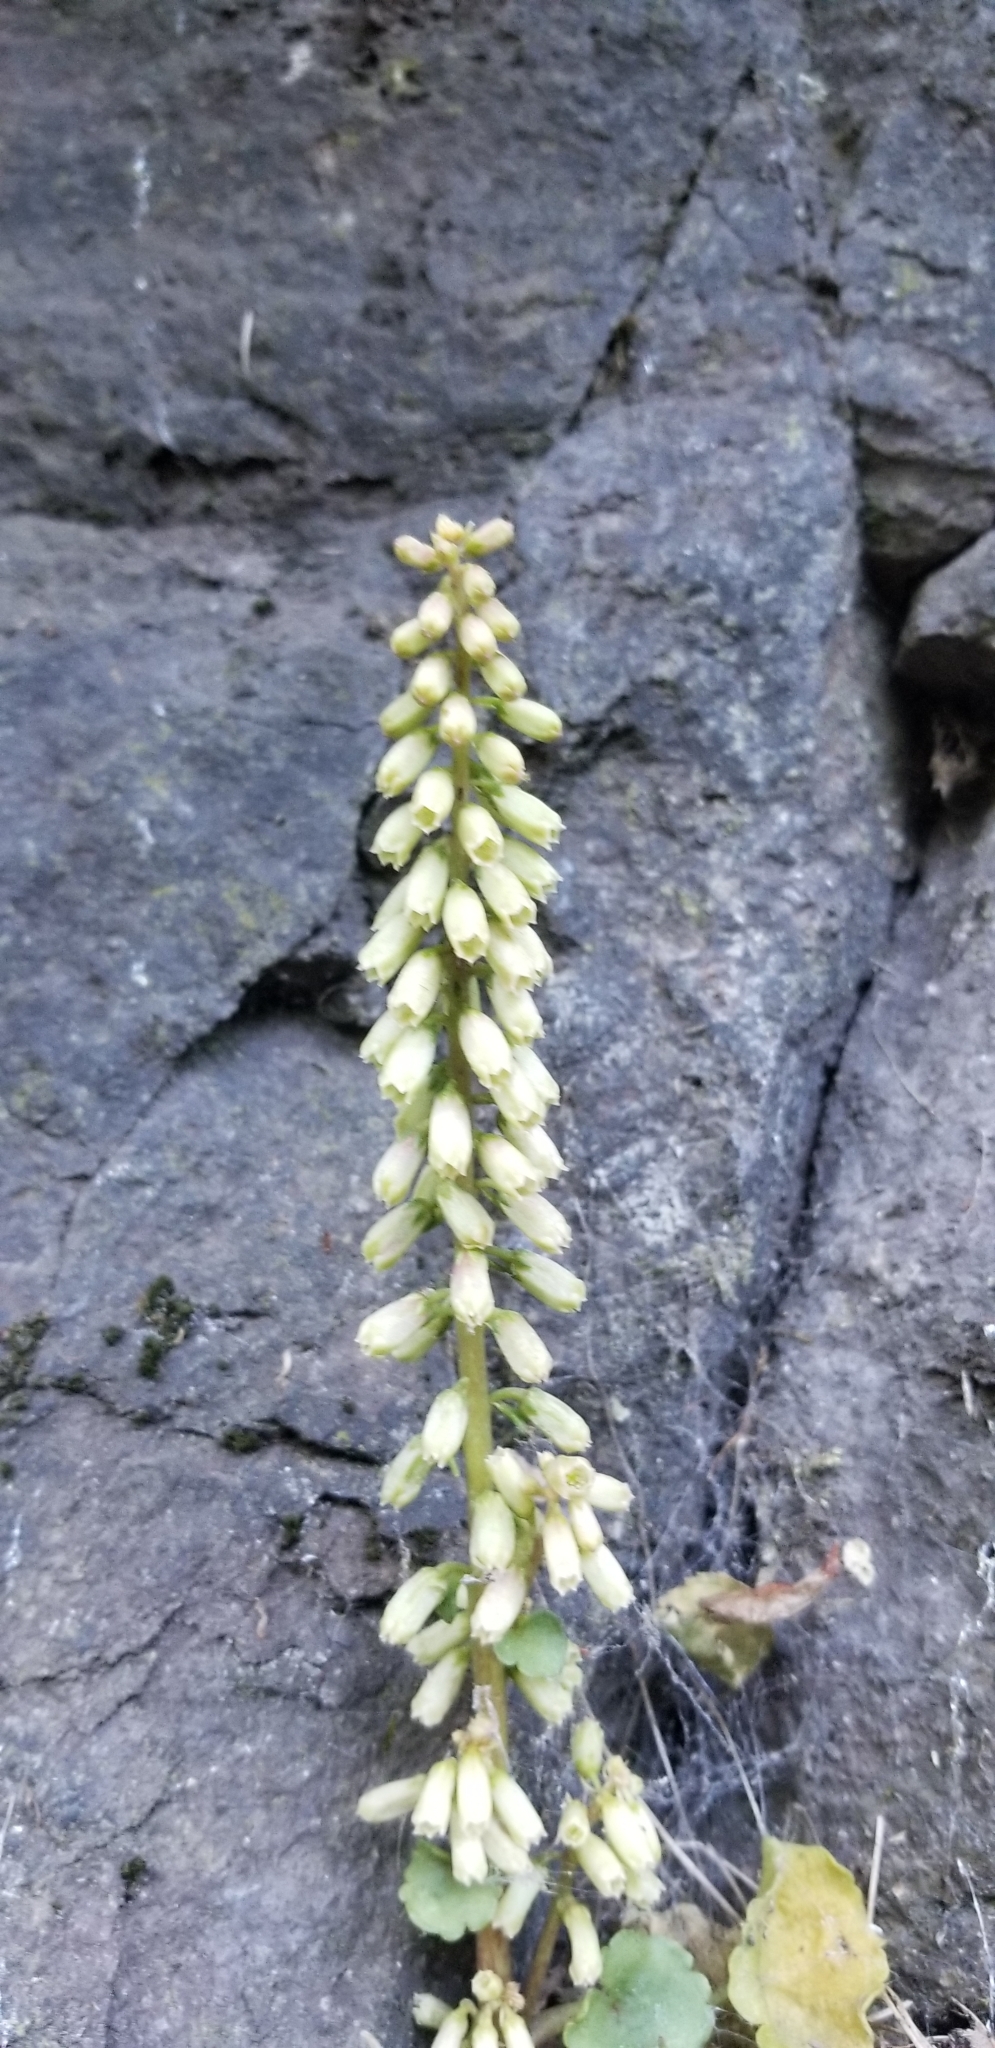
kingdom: Plantae
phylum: Tracheophyta
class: Magnoliopsida
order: Saxifragales
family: Crassulaceae
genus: Umbilicus
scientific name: Umbilicus rupestris
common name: Navelwort
